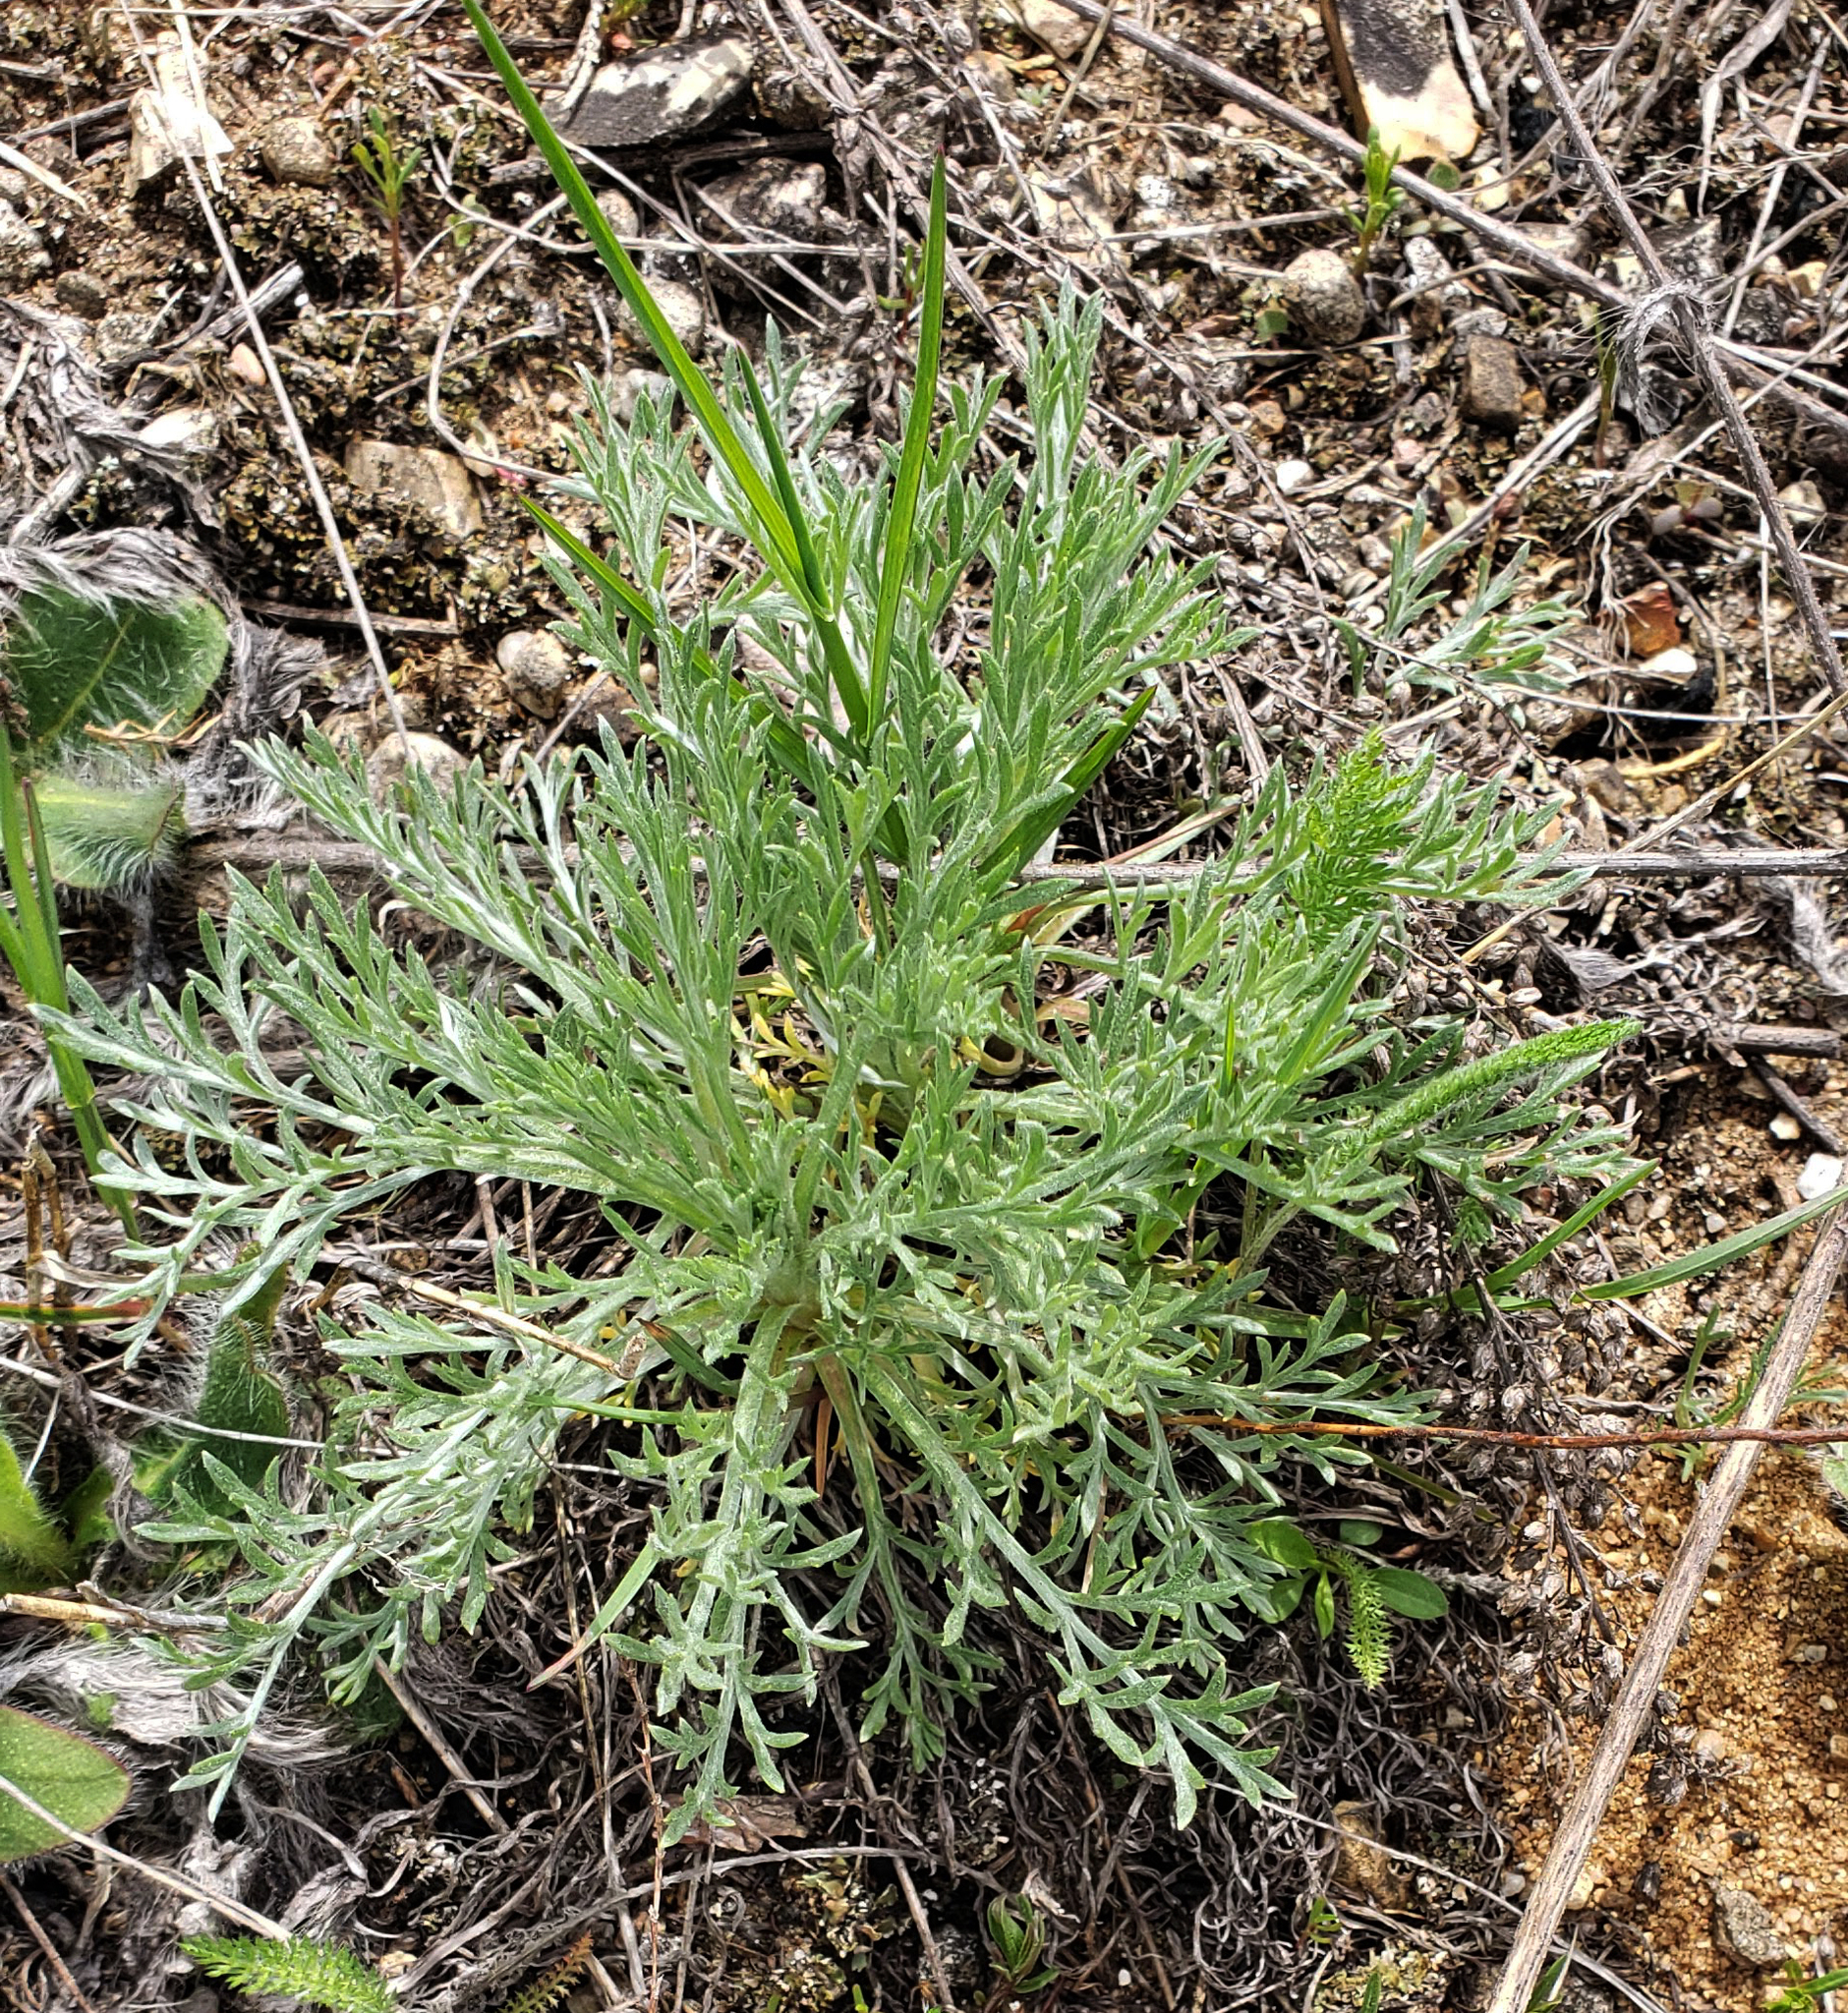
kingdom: Plantae
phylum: Tracheophyta
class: Magnoliopsida
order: Asterales
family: Asteraceae
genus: Artemisia
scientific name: Artemisia campestris
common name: Field wormwood
